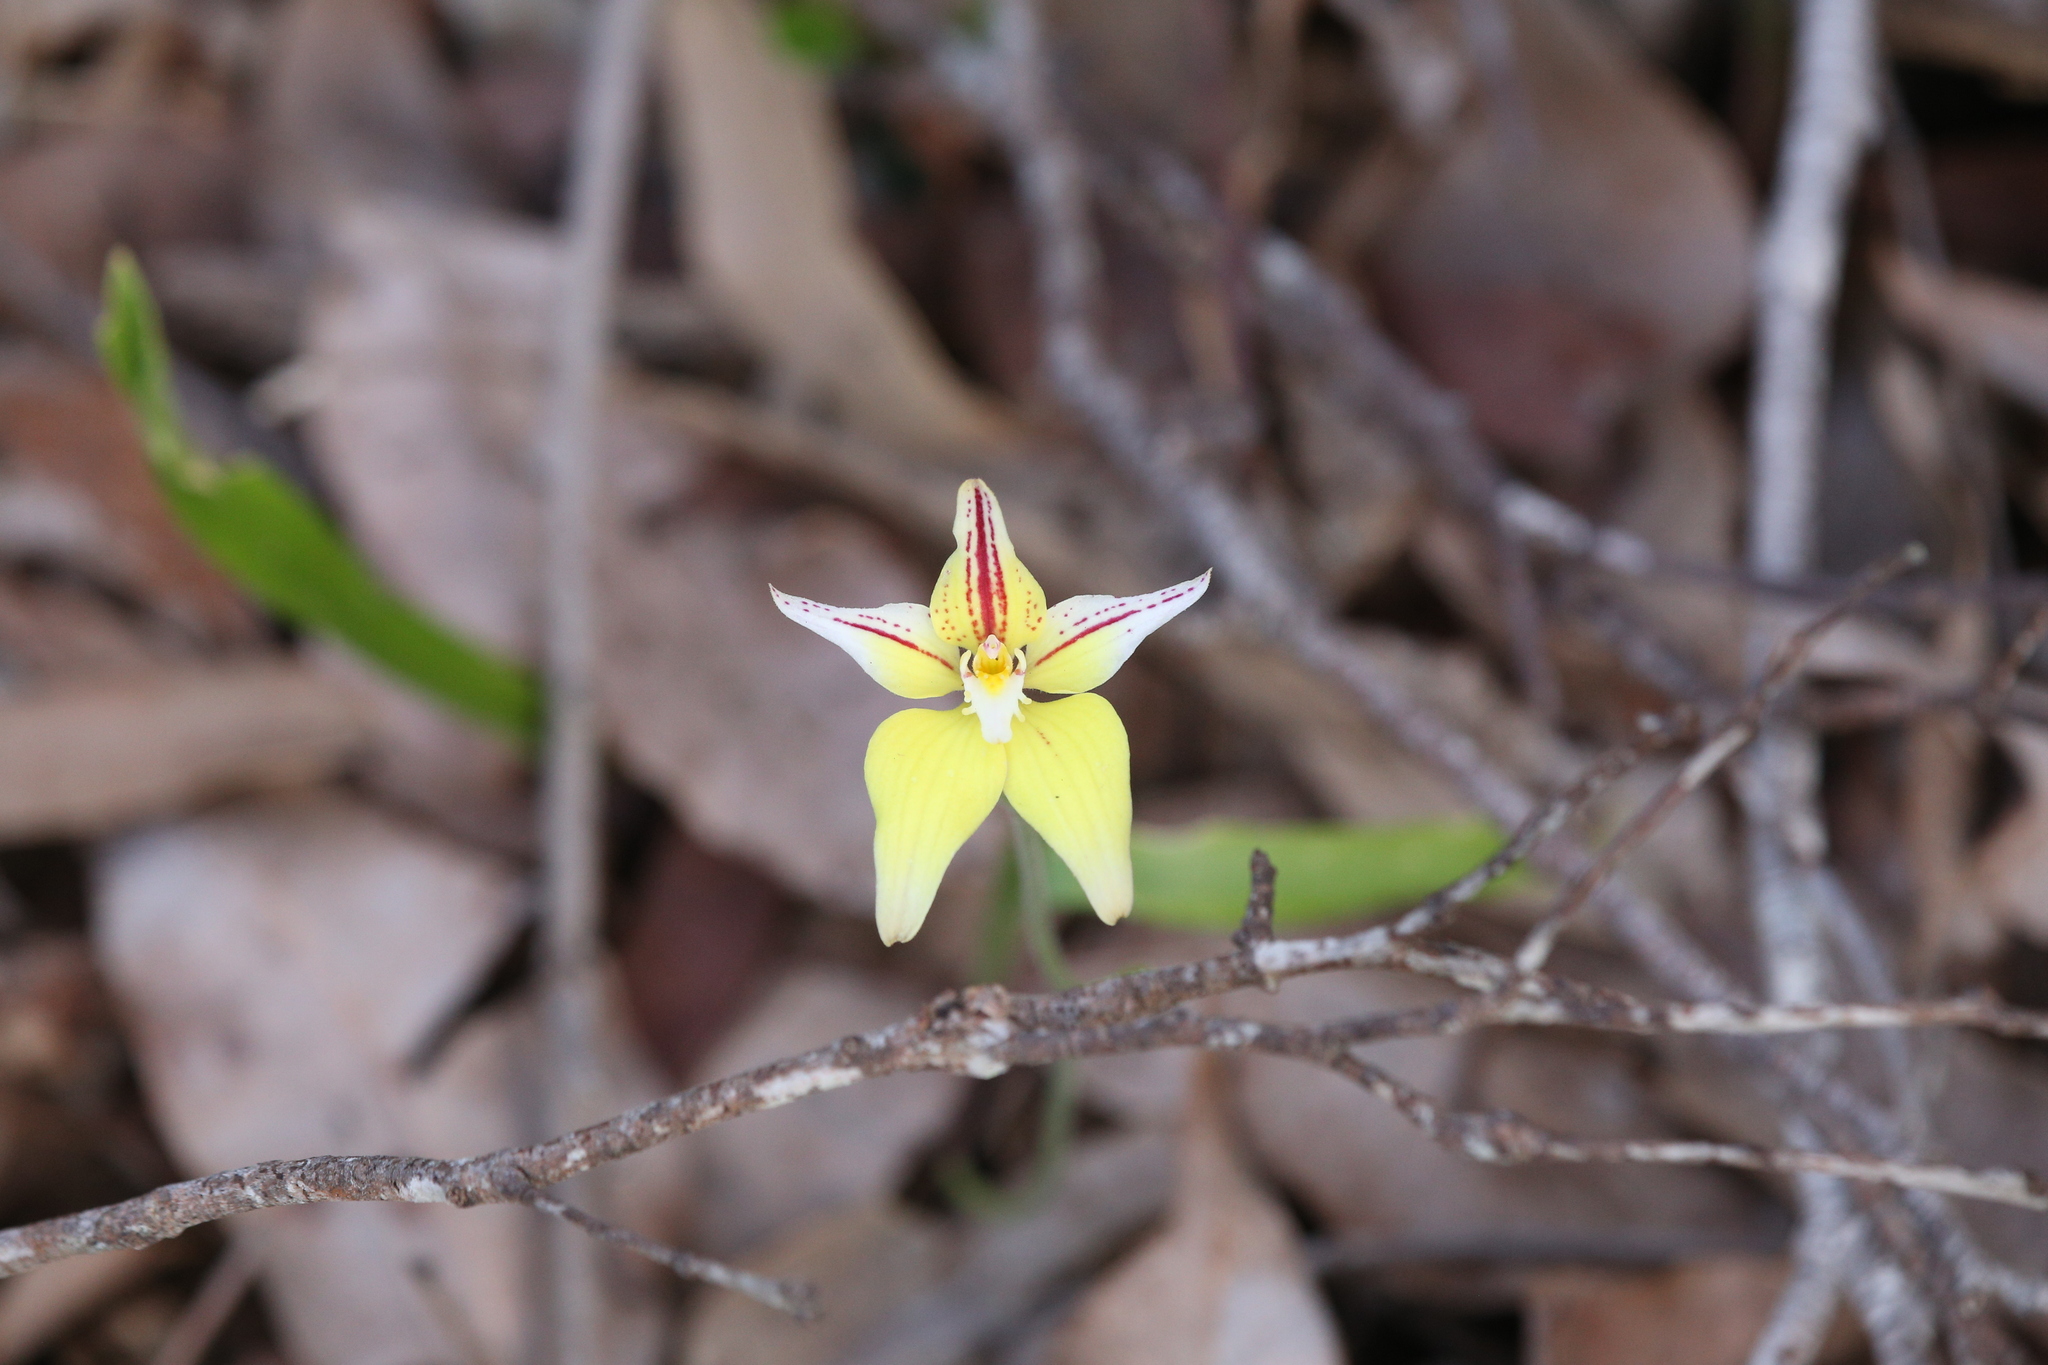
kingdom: Plantae
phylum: Tracheophyta
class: Liliopsida
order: Asparagales
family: Orchidaceae
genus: Caladenia
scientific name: Caladenia flava
